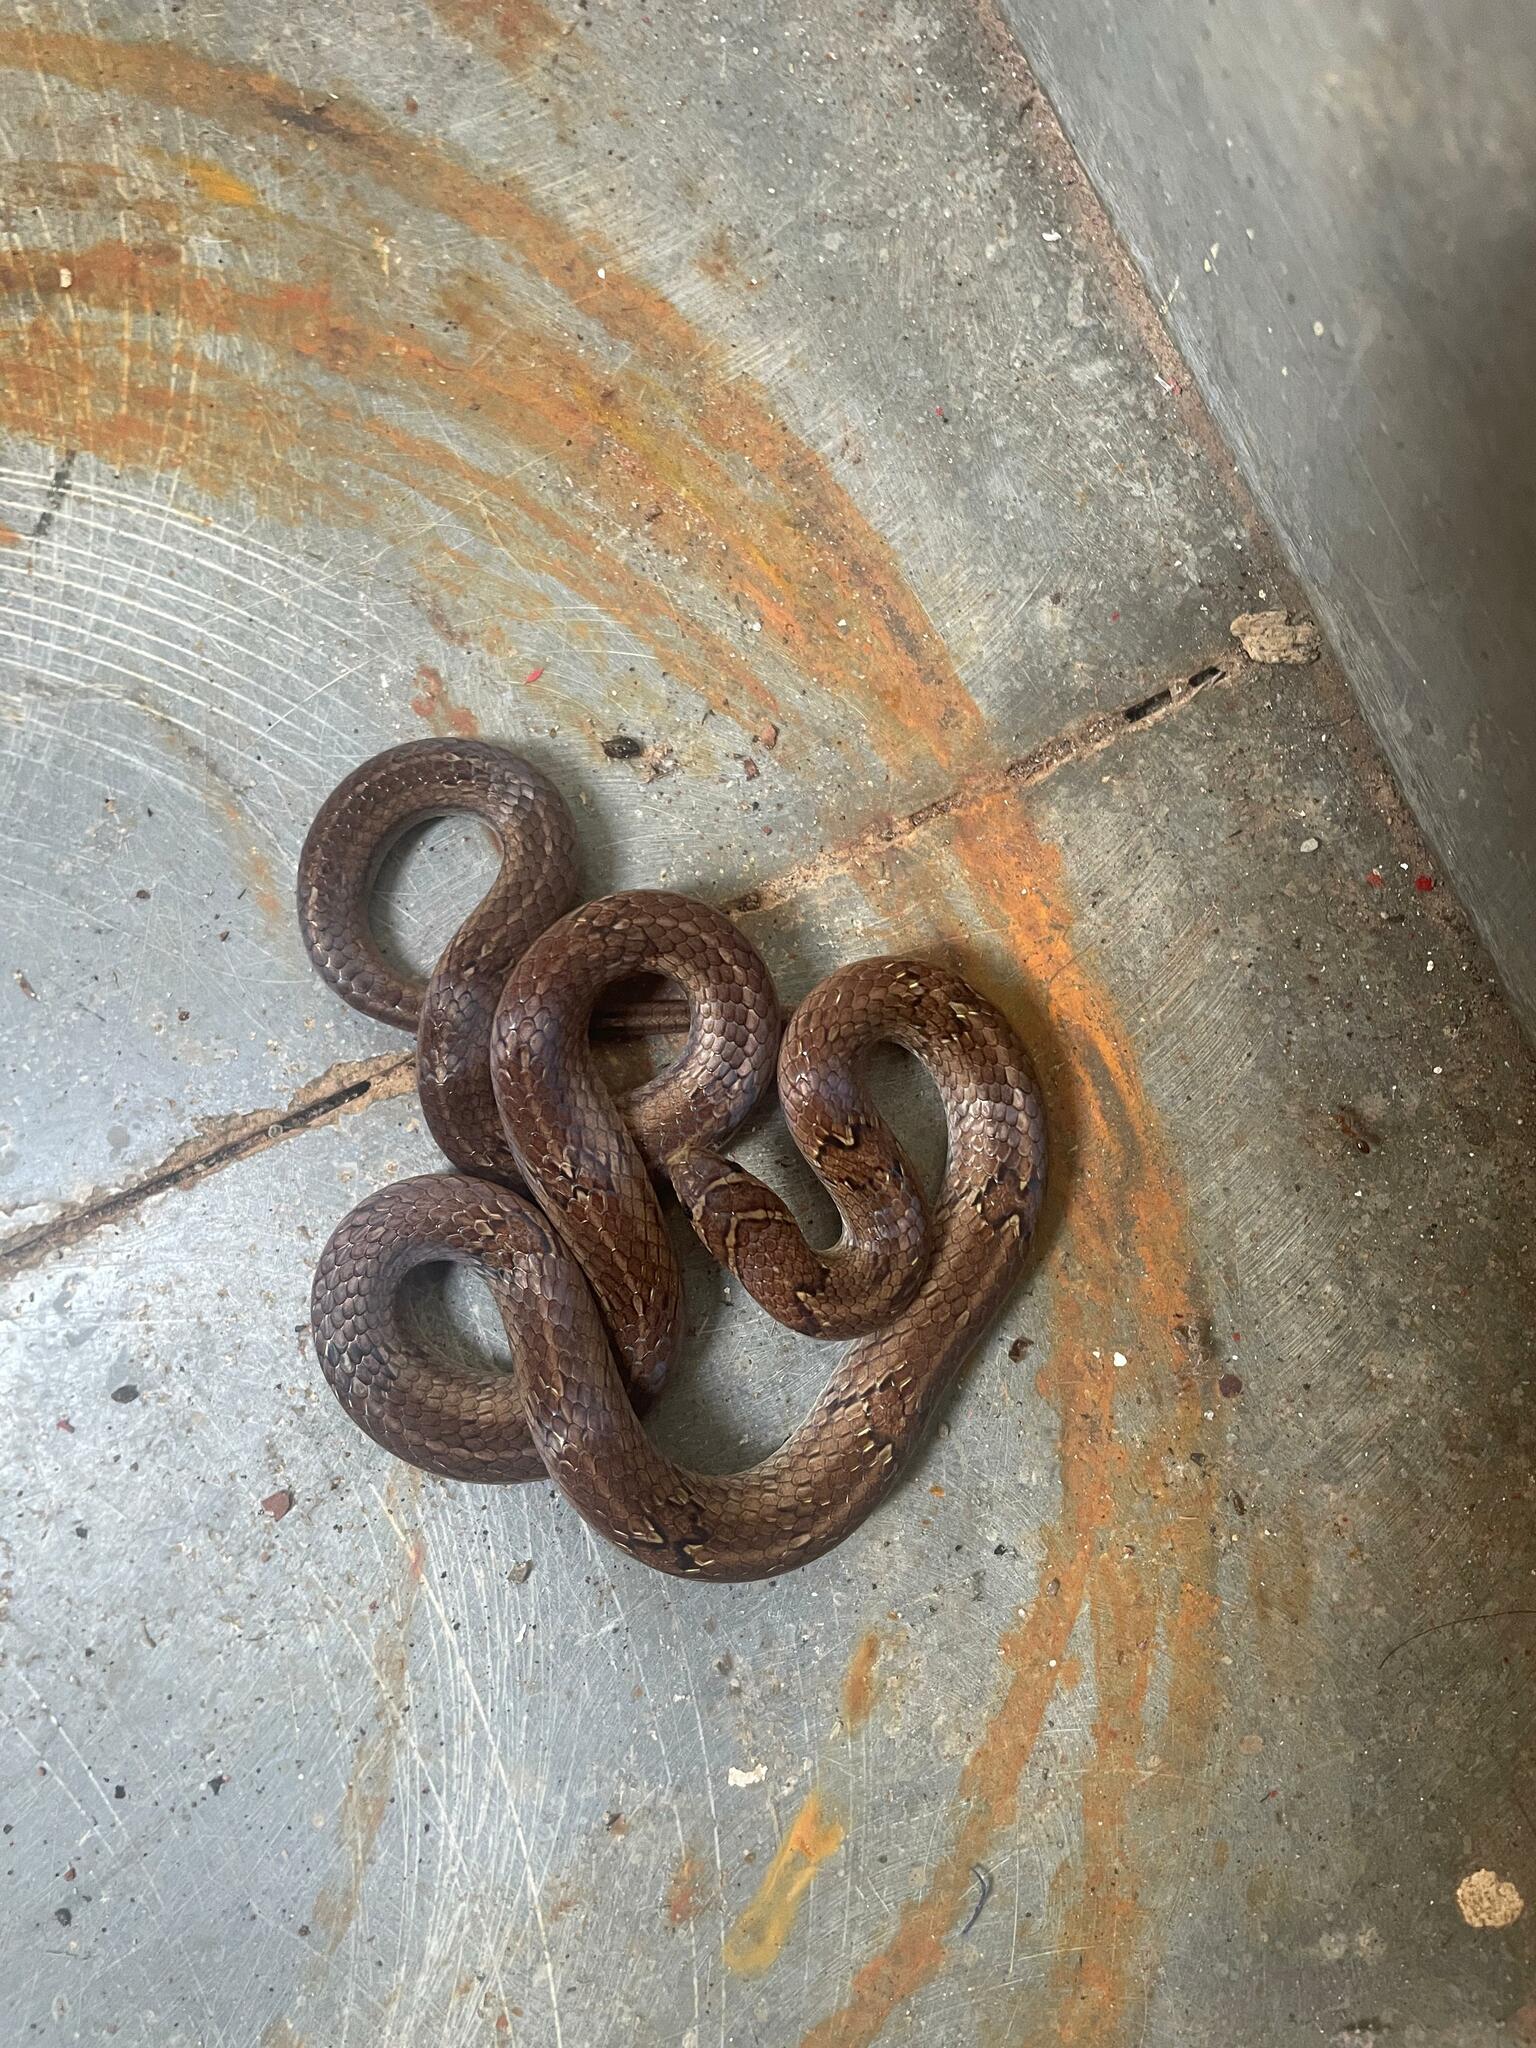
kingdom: Animalia
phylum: Chordata
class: Squamata
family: Colubridae
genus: Oligodon
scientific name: Oligodon taeniolatus
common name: Loos snake
